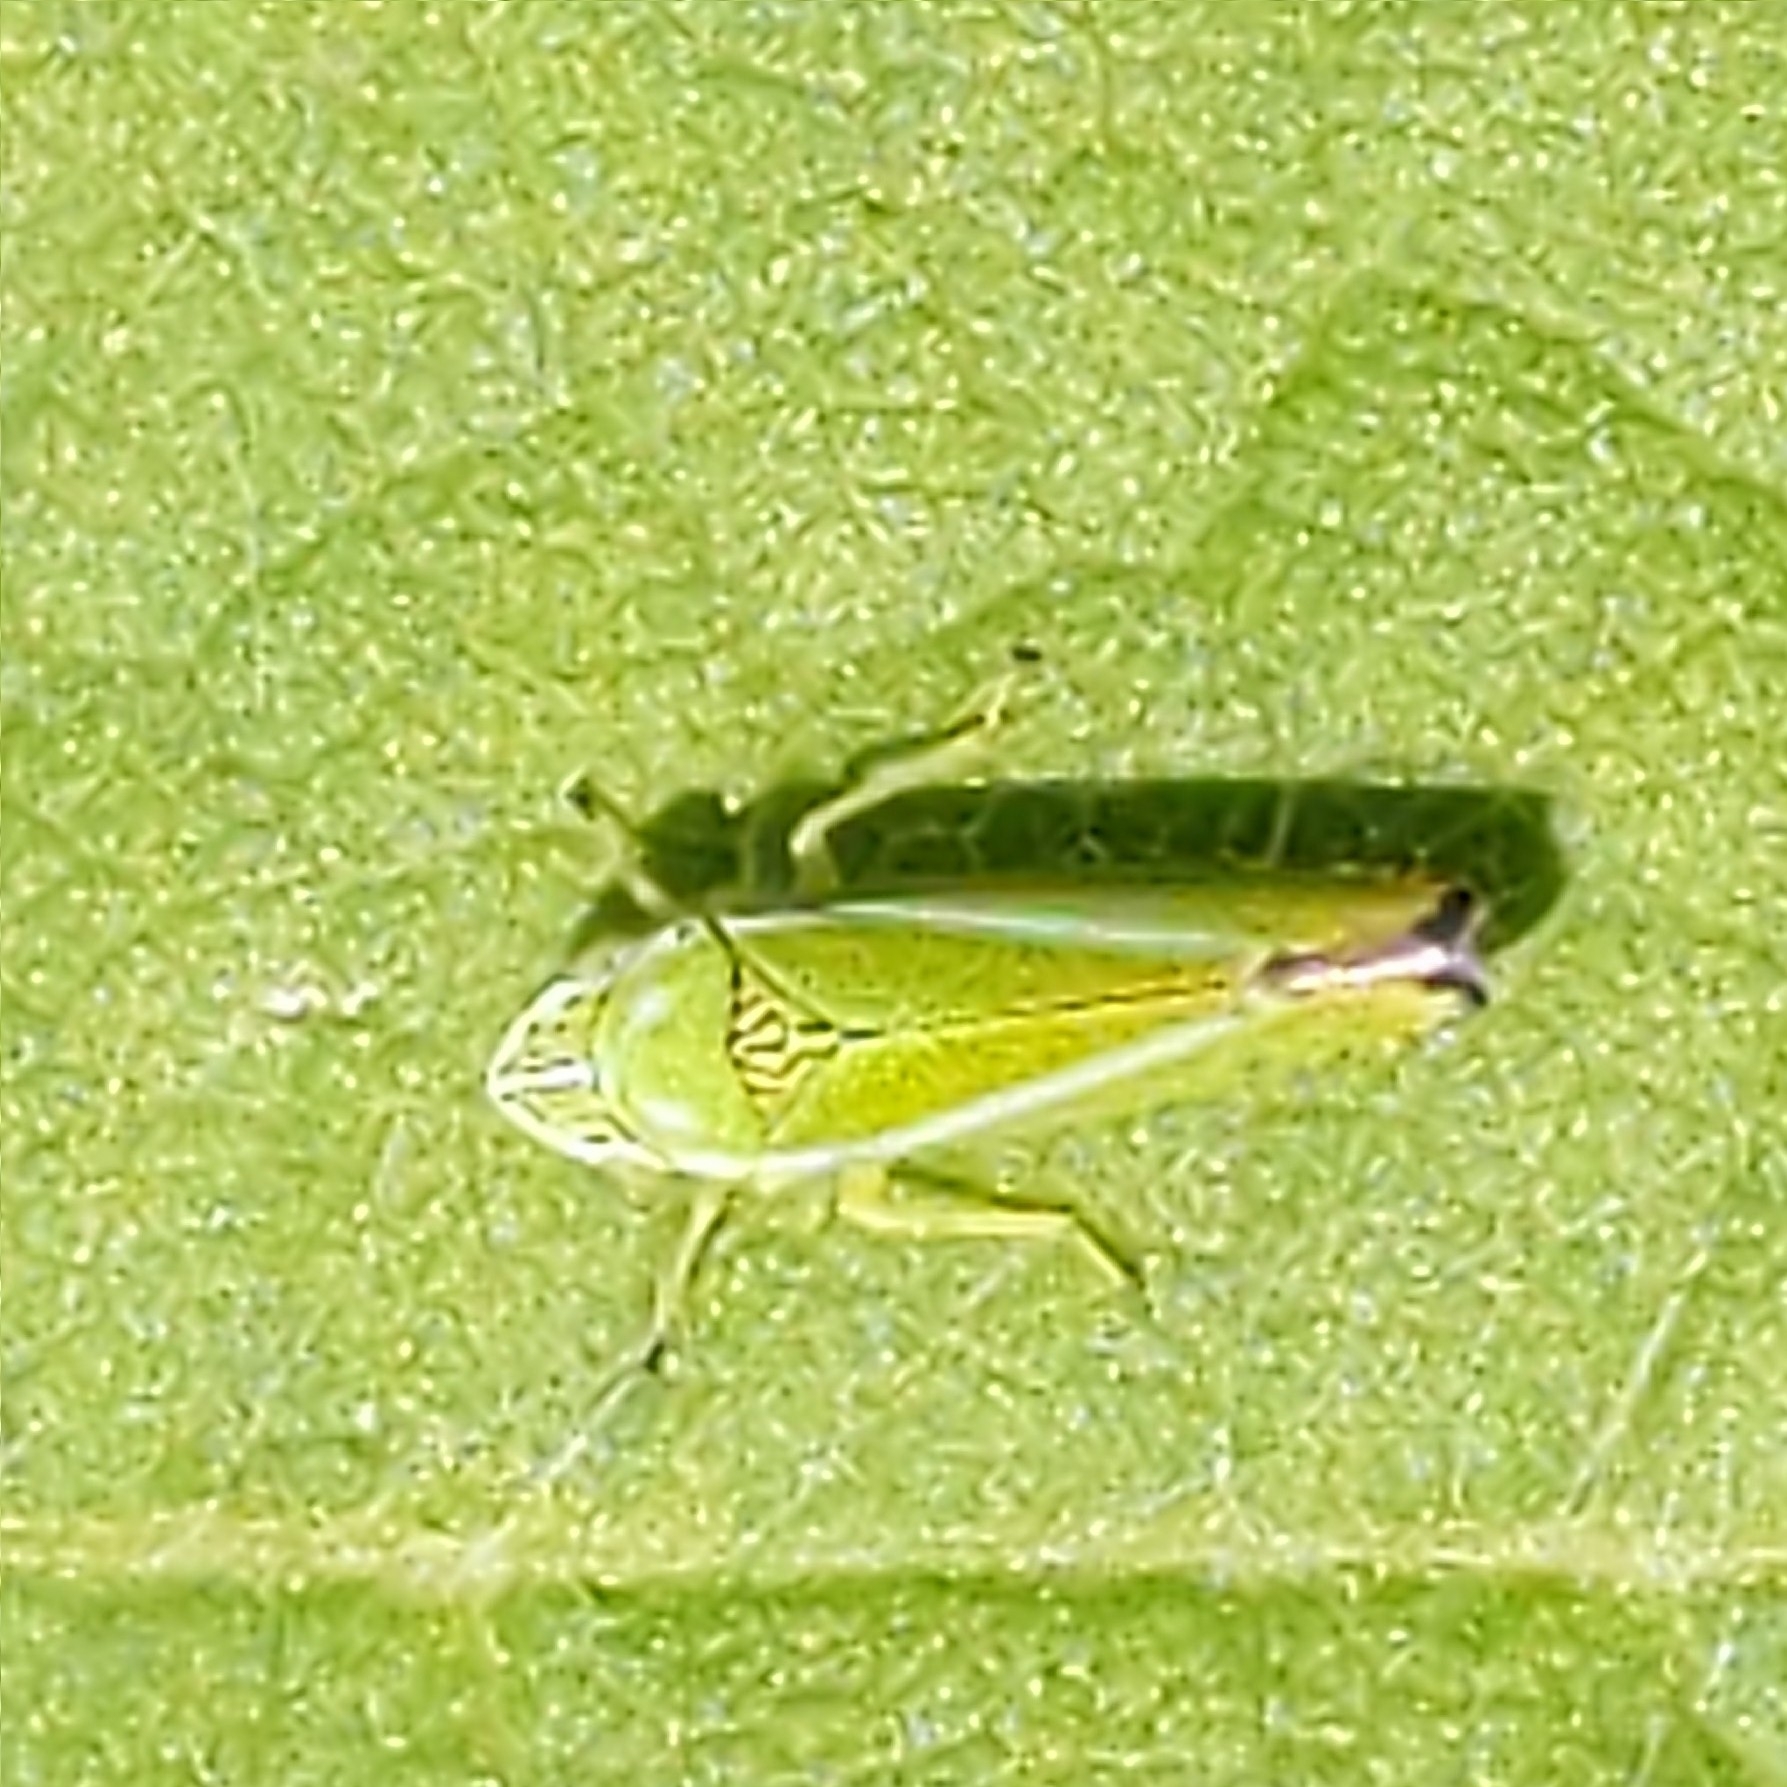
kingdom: Animalia
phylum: Arthropoda
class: Insecta
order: Hemiptera
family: Cicadellidae
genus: Graphocephala
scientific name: Graphocephala versuta
